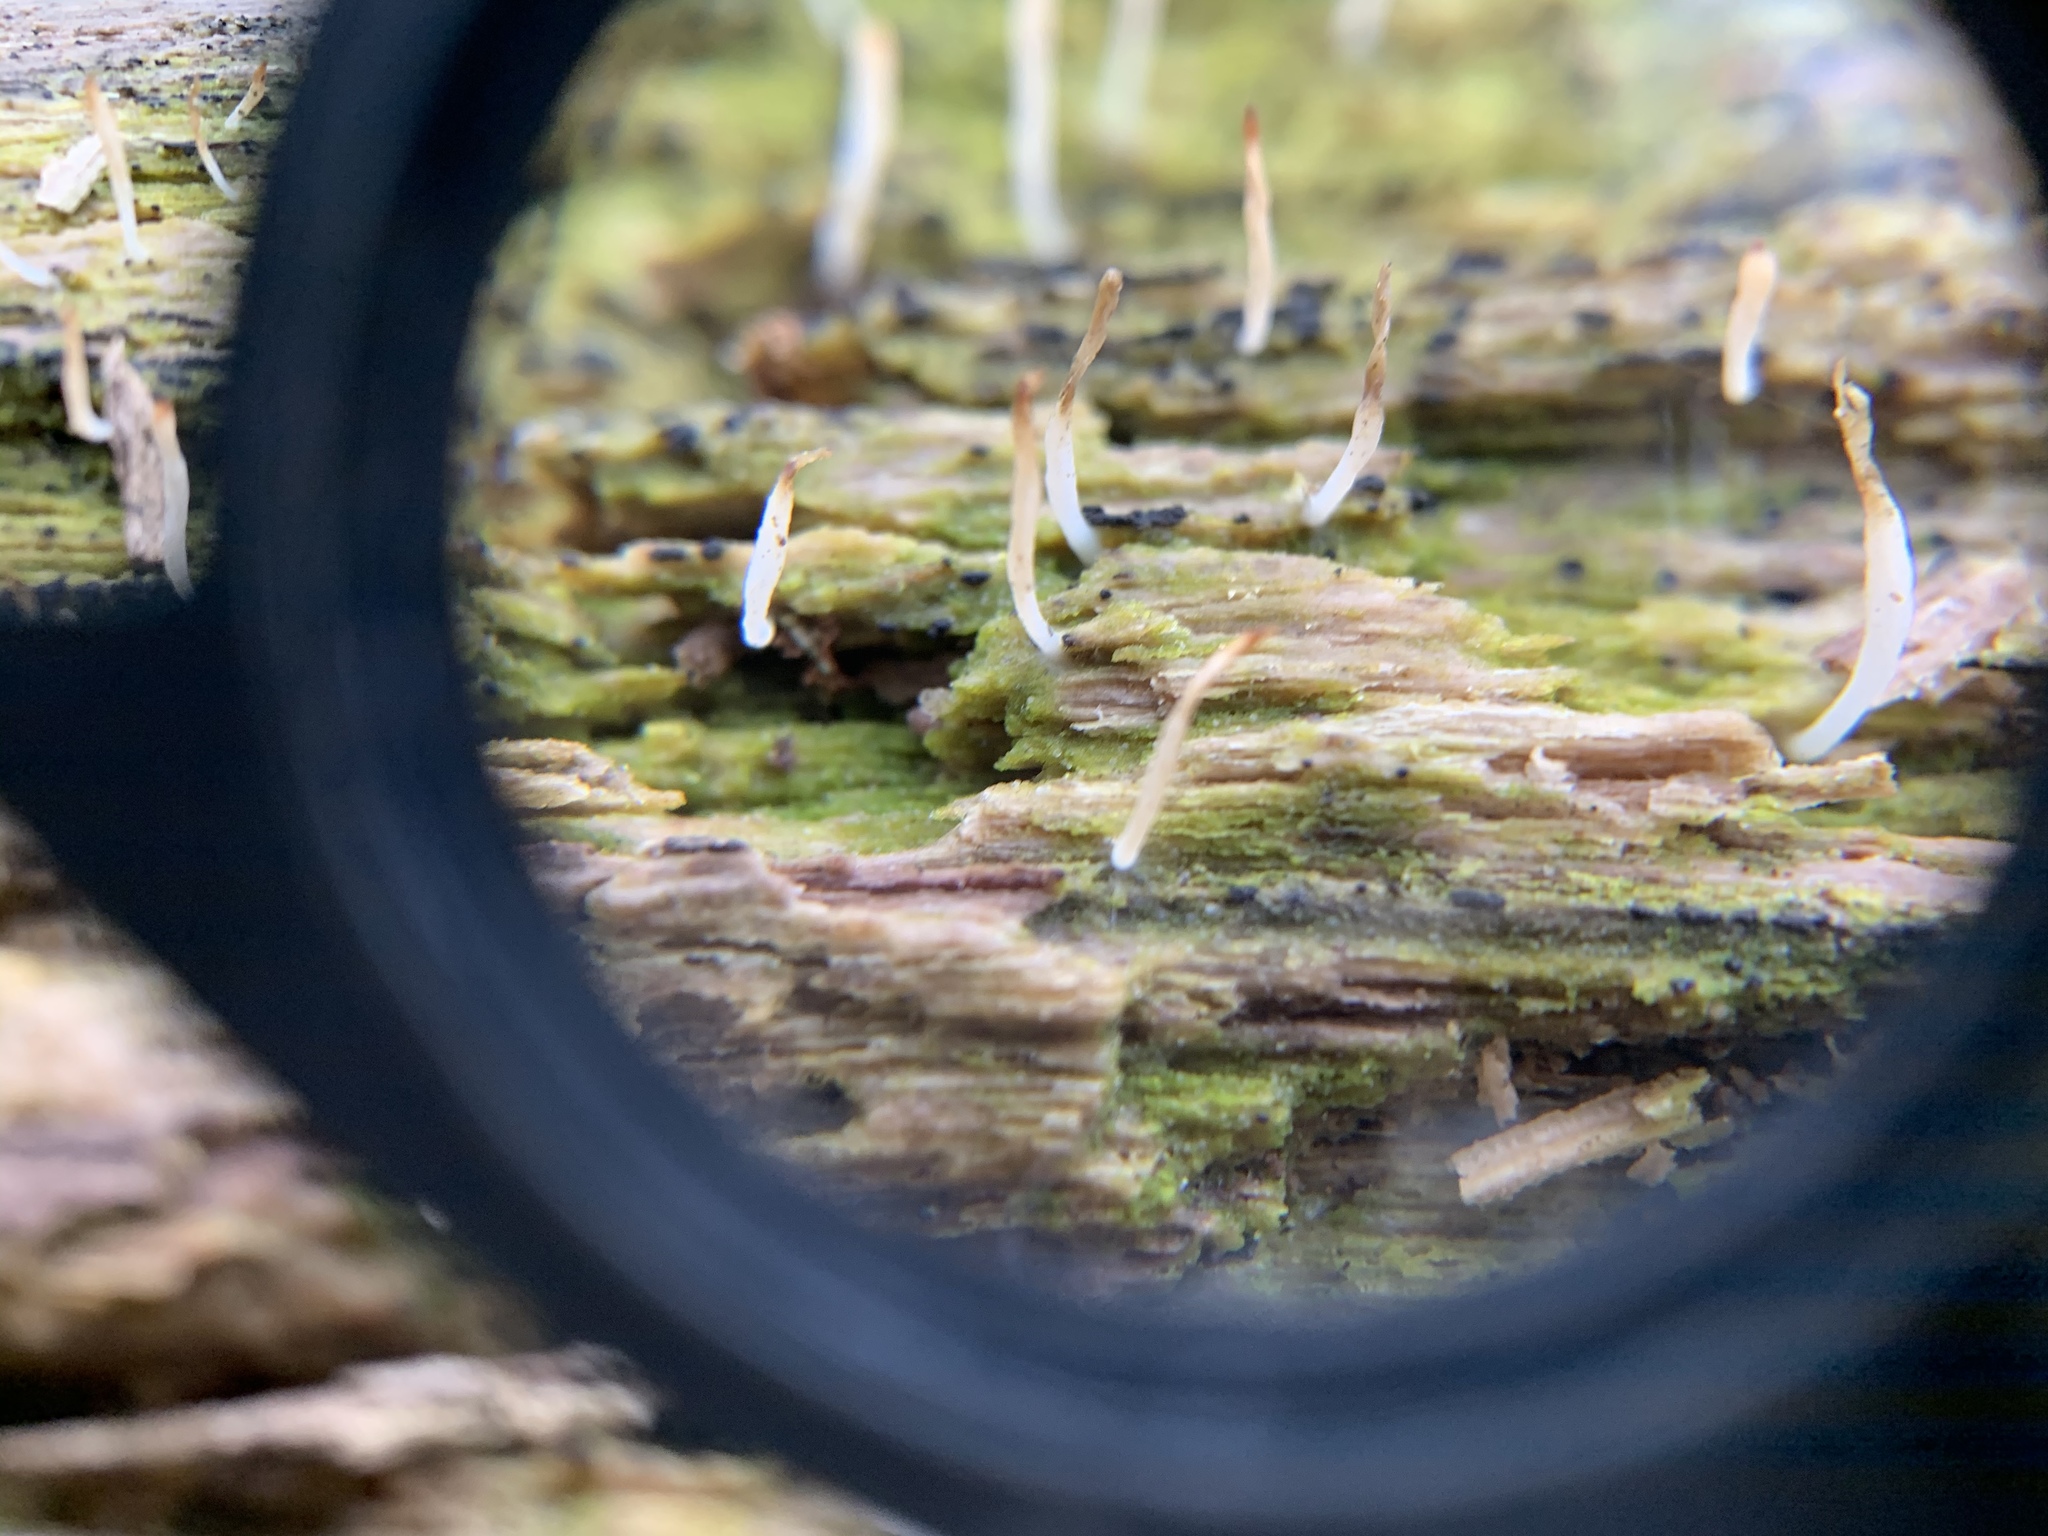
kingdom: Fungi
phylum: Basidiomycota
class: Agaricomycetes
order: Cantharellales
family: Hydnaceae
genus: Multiclavula
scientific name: Multiclavula mucida
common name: White green-algae coral
